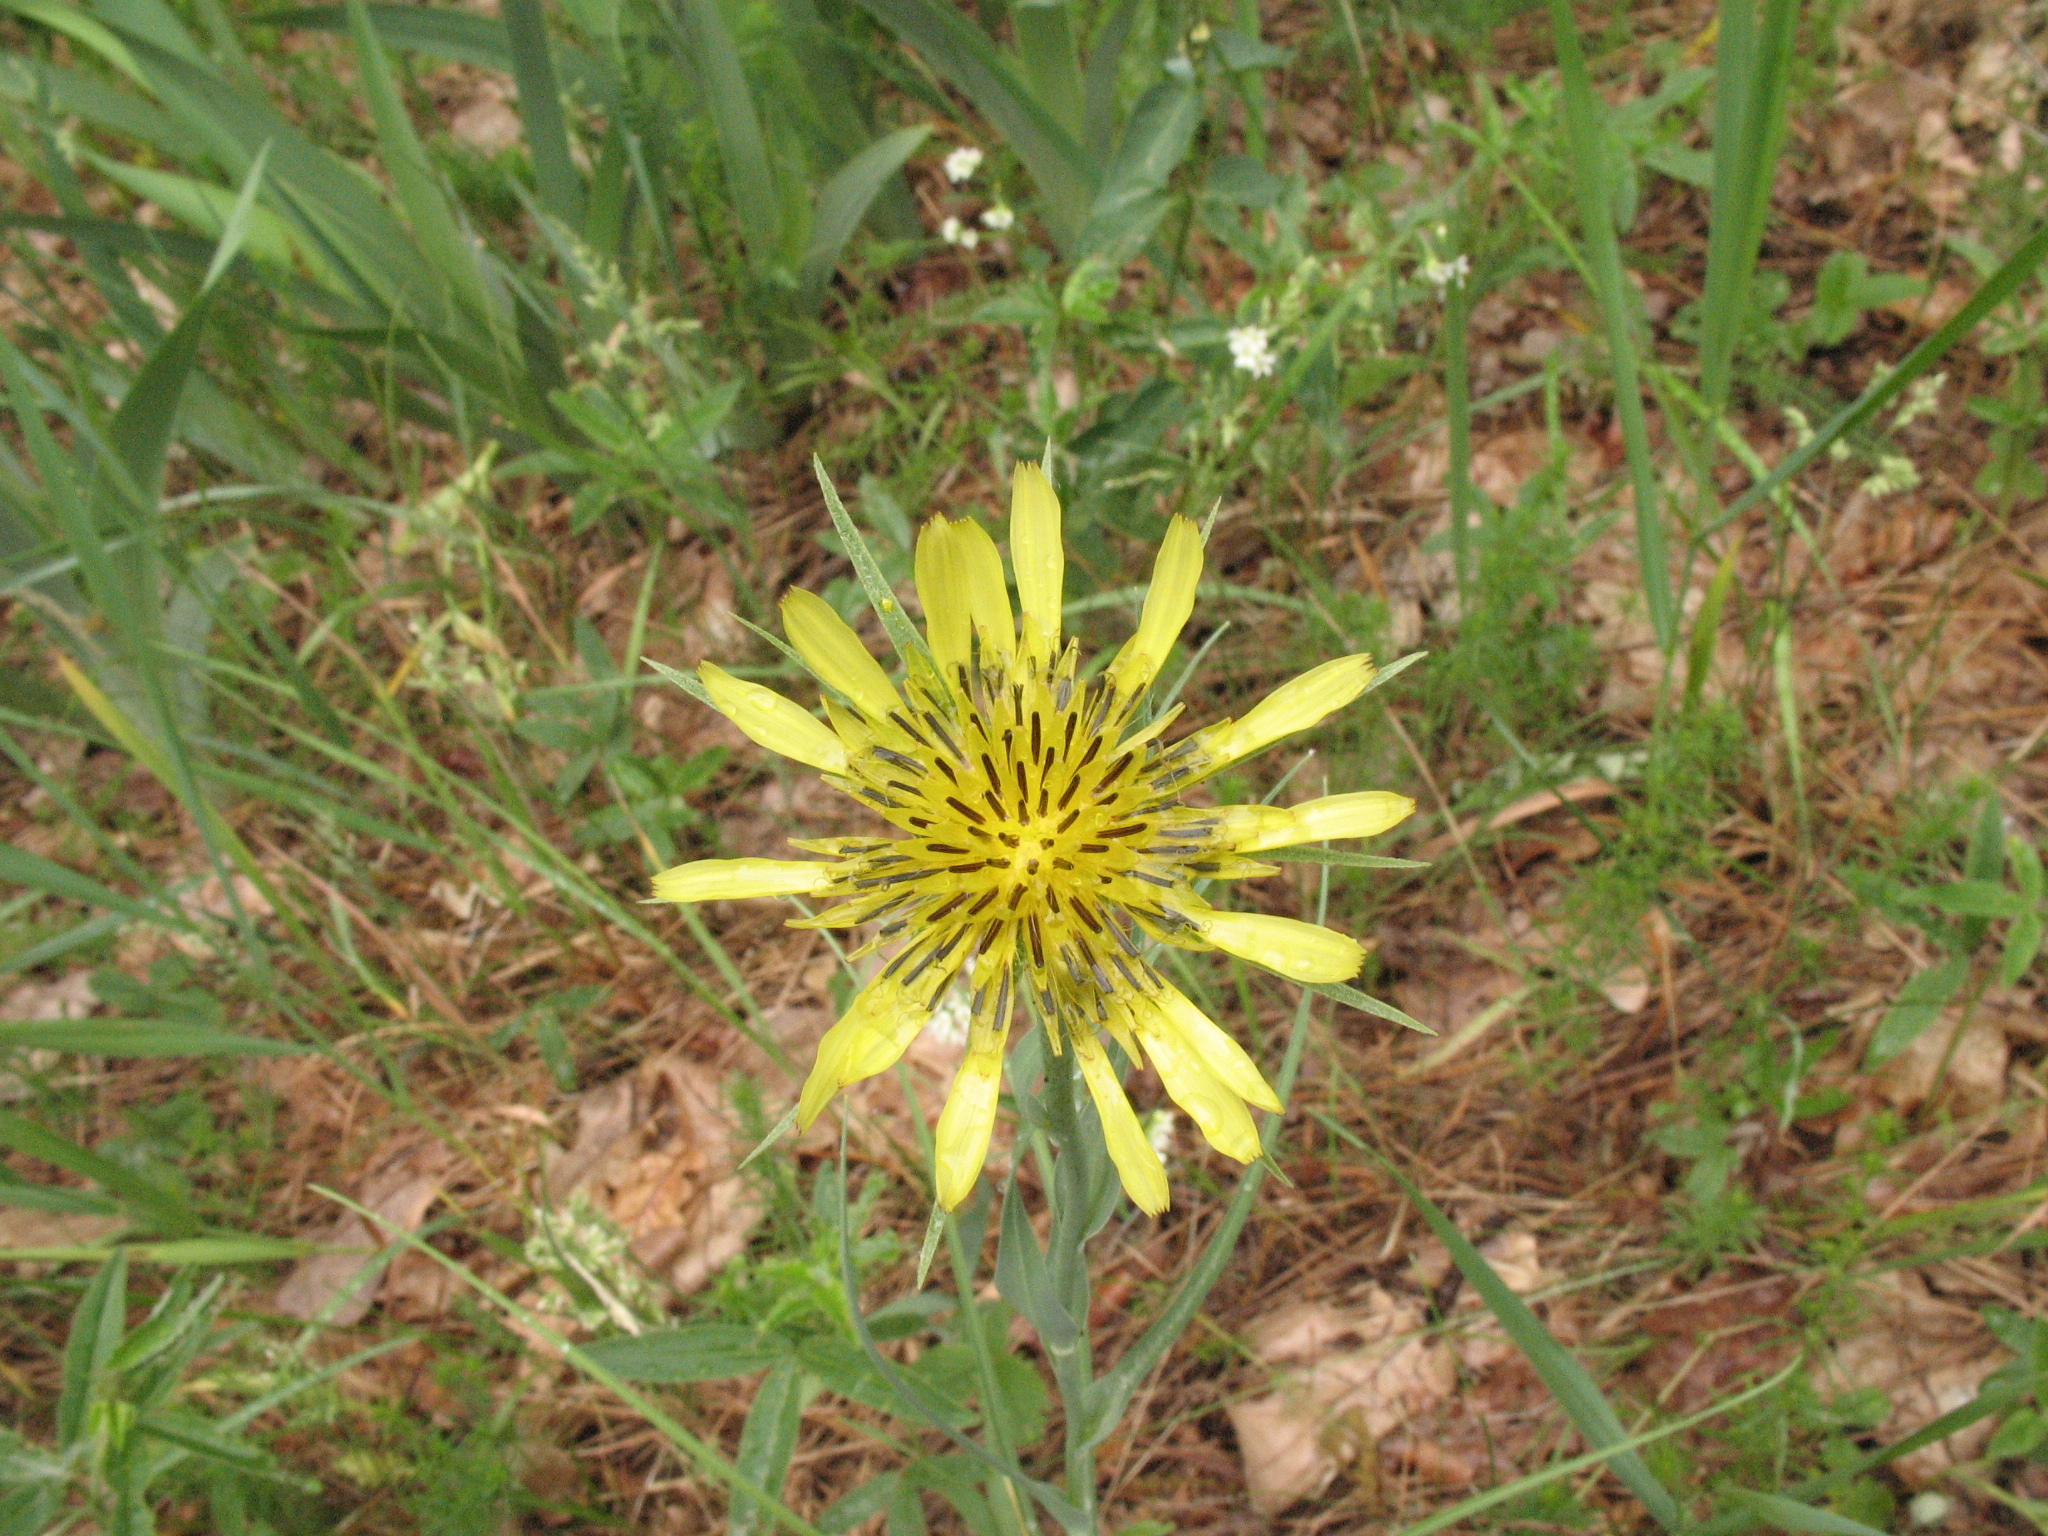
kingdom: Plantae
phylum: Tracheophyta
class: Magnoliopsida
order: Asterales
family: Asteraceae
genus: Tragopogon
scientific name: Tragopogon dubius
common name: Yellow salsify
